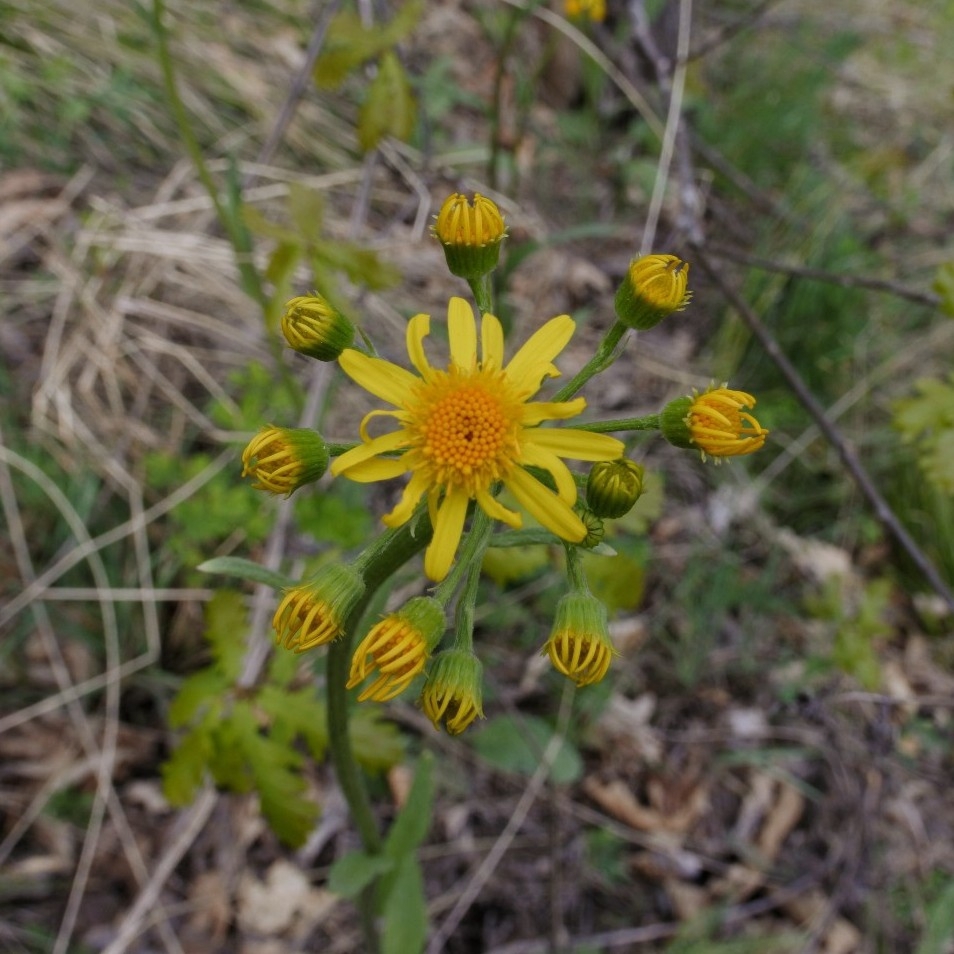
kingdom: Plantae
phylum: Tracheophyta
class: Magnoliopsida
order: Asterales
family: Asteraceae
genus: Tephroseris
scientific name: Tephroseris integrifolia
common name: Field fleawort
